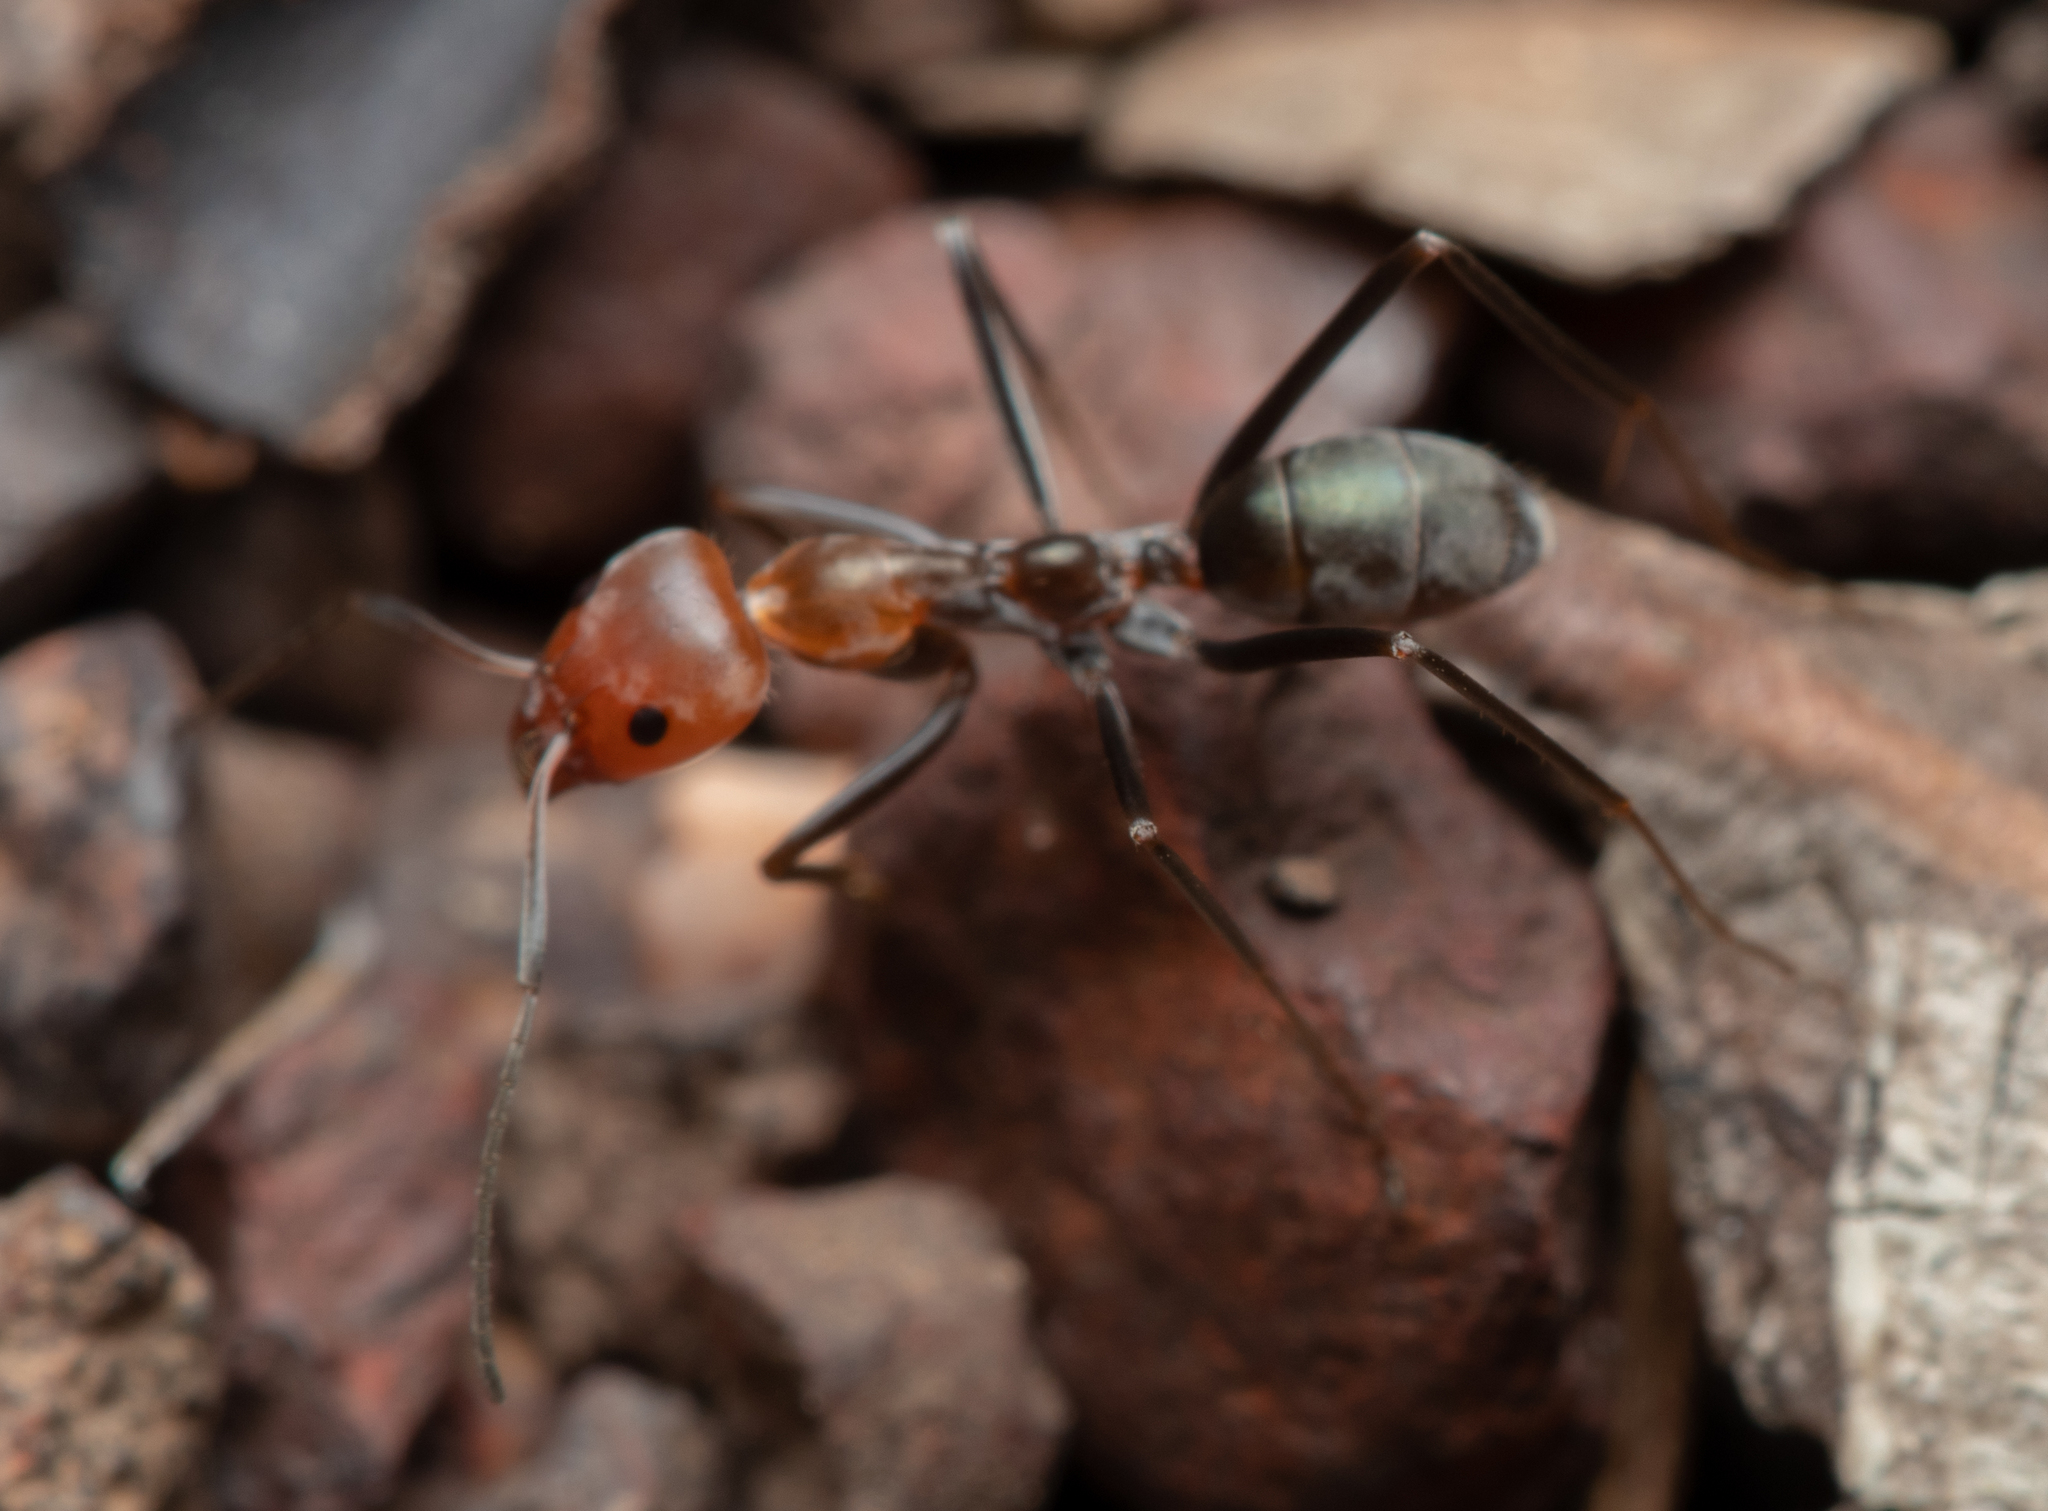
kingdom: Animalia
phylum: Arthropoda
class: Insecta
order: Hymenoptera
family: Formicidae
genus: Iridomyrmex
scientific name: Iridomyrmex
